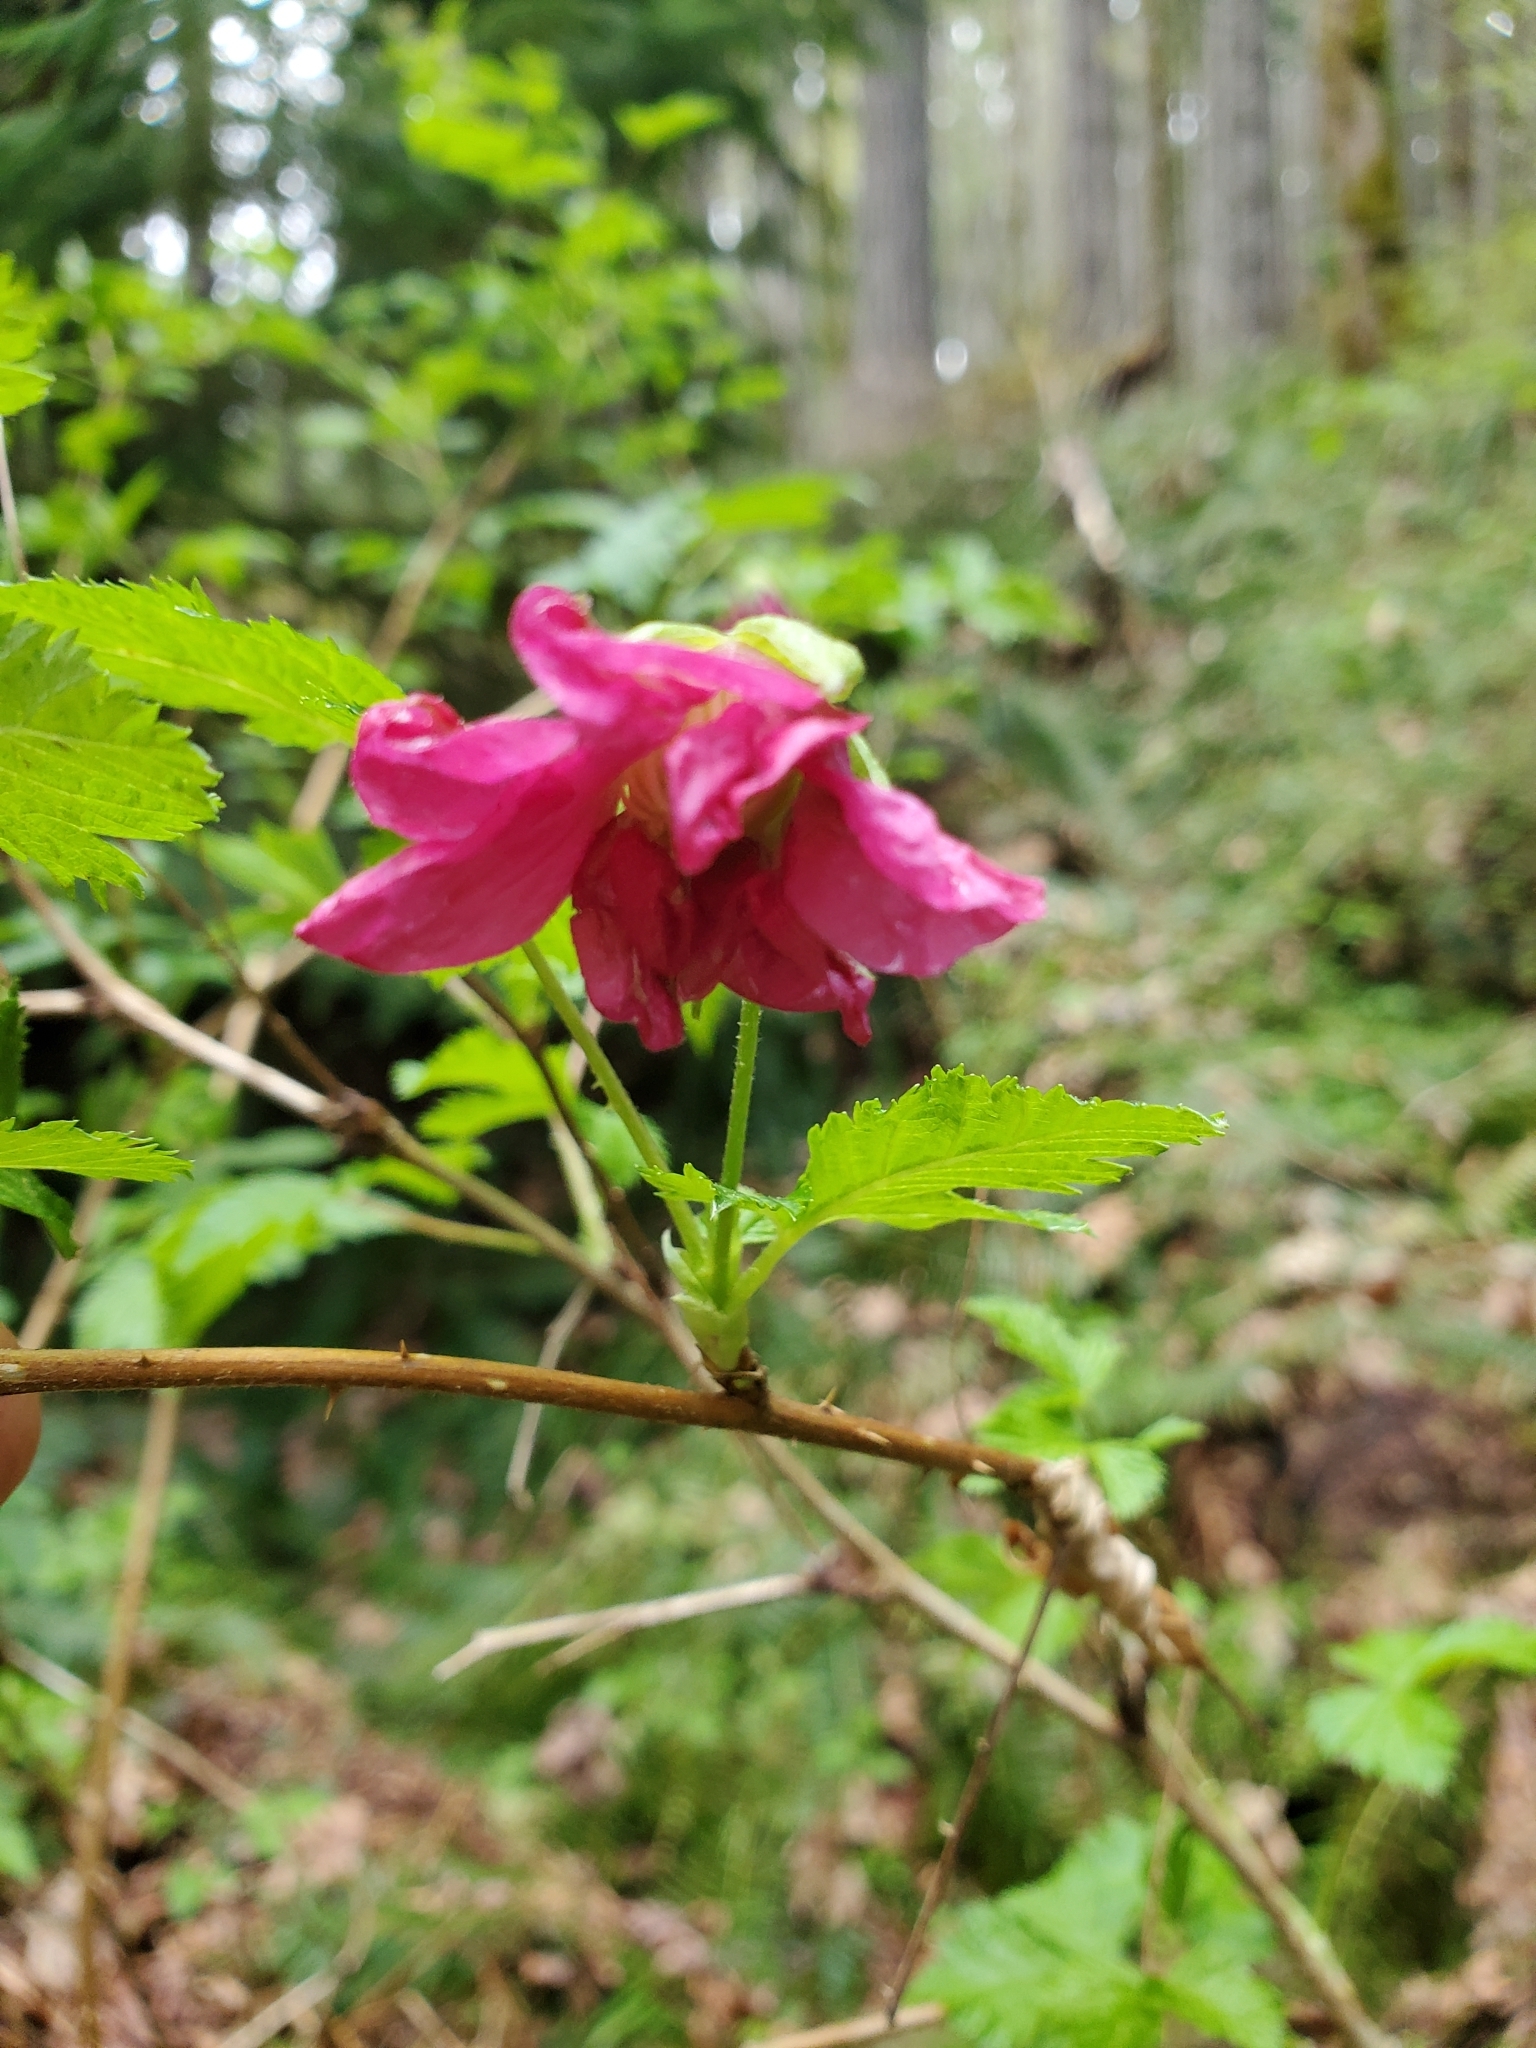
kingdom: Plantae
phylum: Tracheophyta
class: Magnoliopsida
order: Rosales
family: Rosaceae
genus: Rubus
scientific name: Rubus spectabilis
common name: Salmonberry
